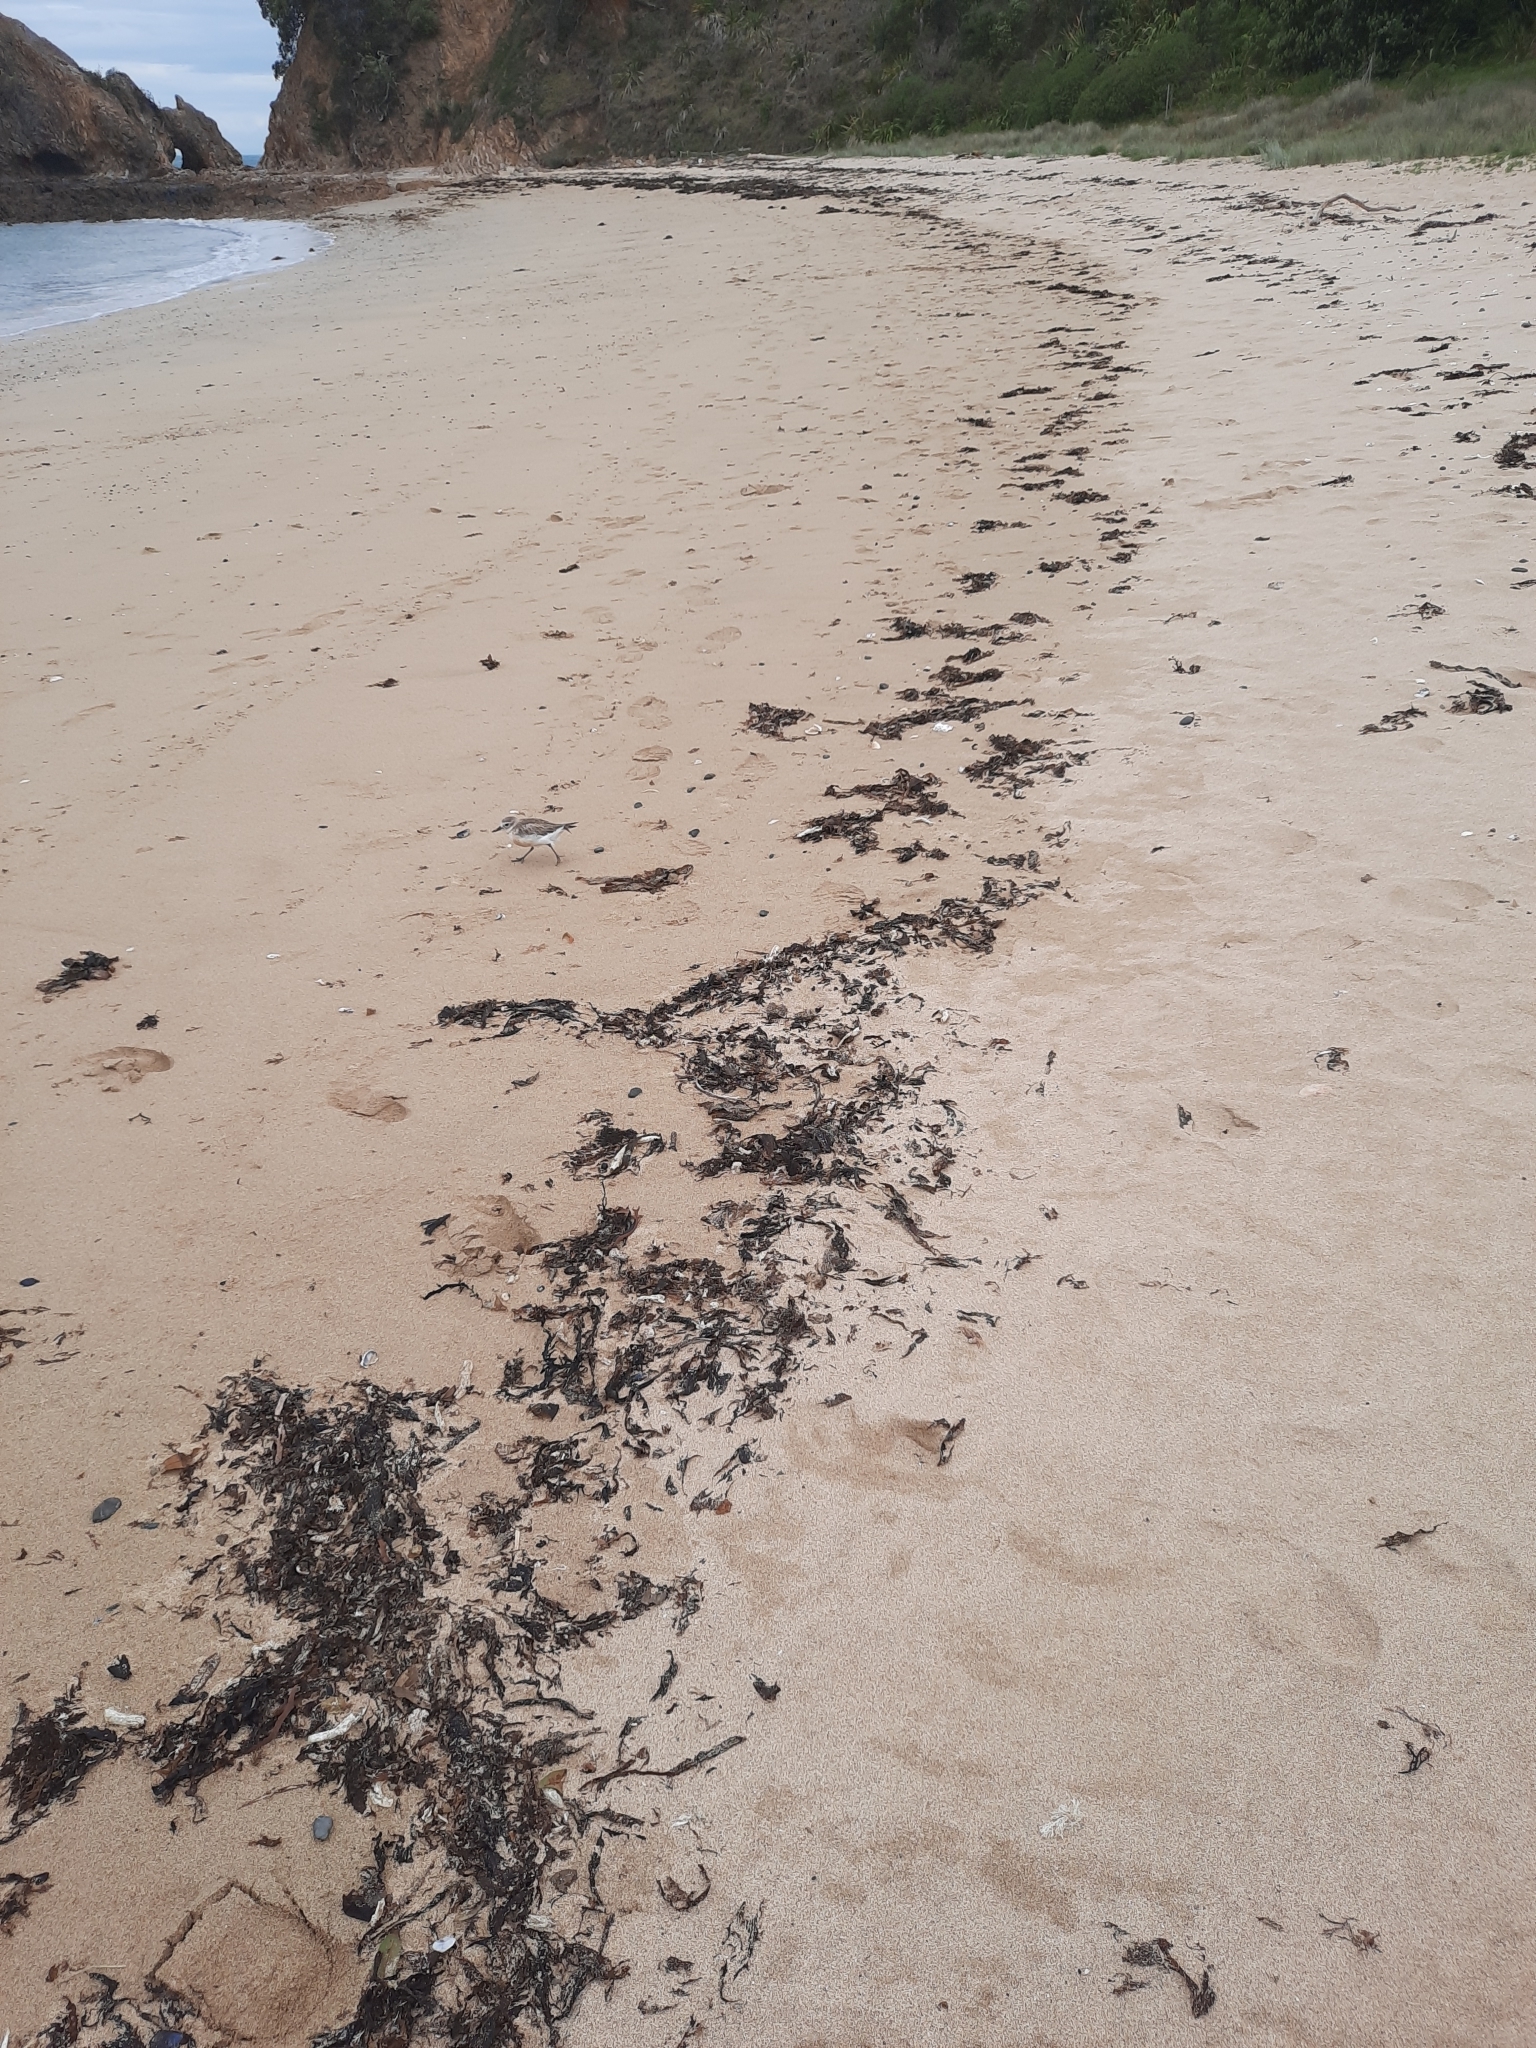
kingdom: Animalia
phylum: Chordata
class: Aves
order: Charadriiformes
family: Charadriidae
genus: Anarhynchus
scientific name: Anarhynchus
